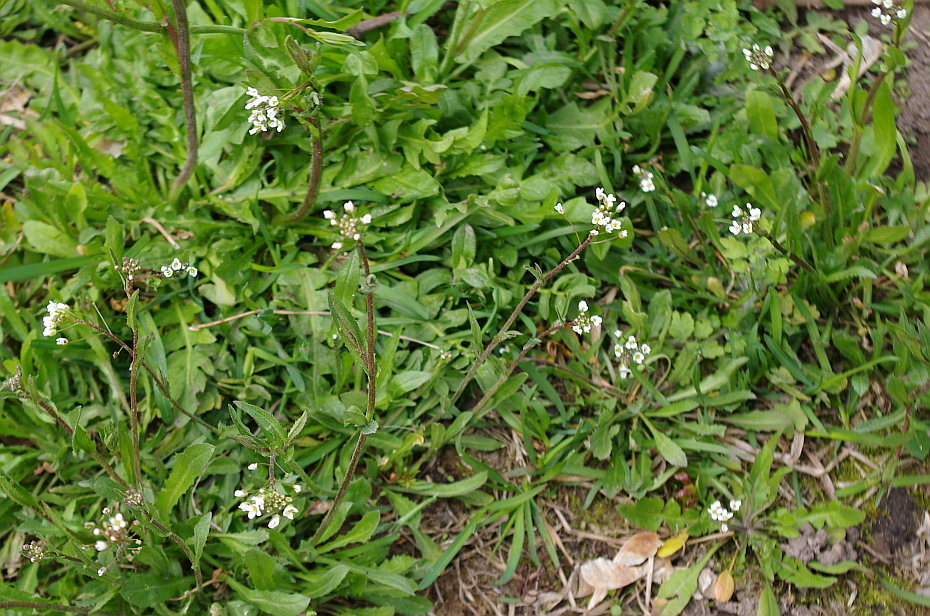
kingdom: Plantae
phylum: Tracheophyta
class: Magnoliopsida
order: Brassicales
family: Brassicaceae
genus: Capsella
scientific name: Capsella bursa-pastoris
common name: Shepherd's purse
